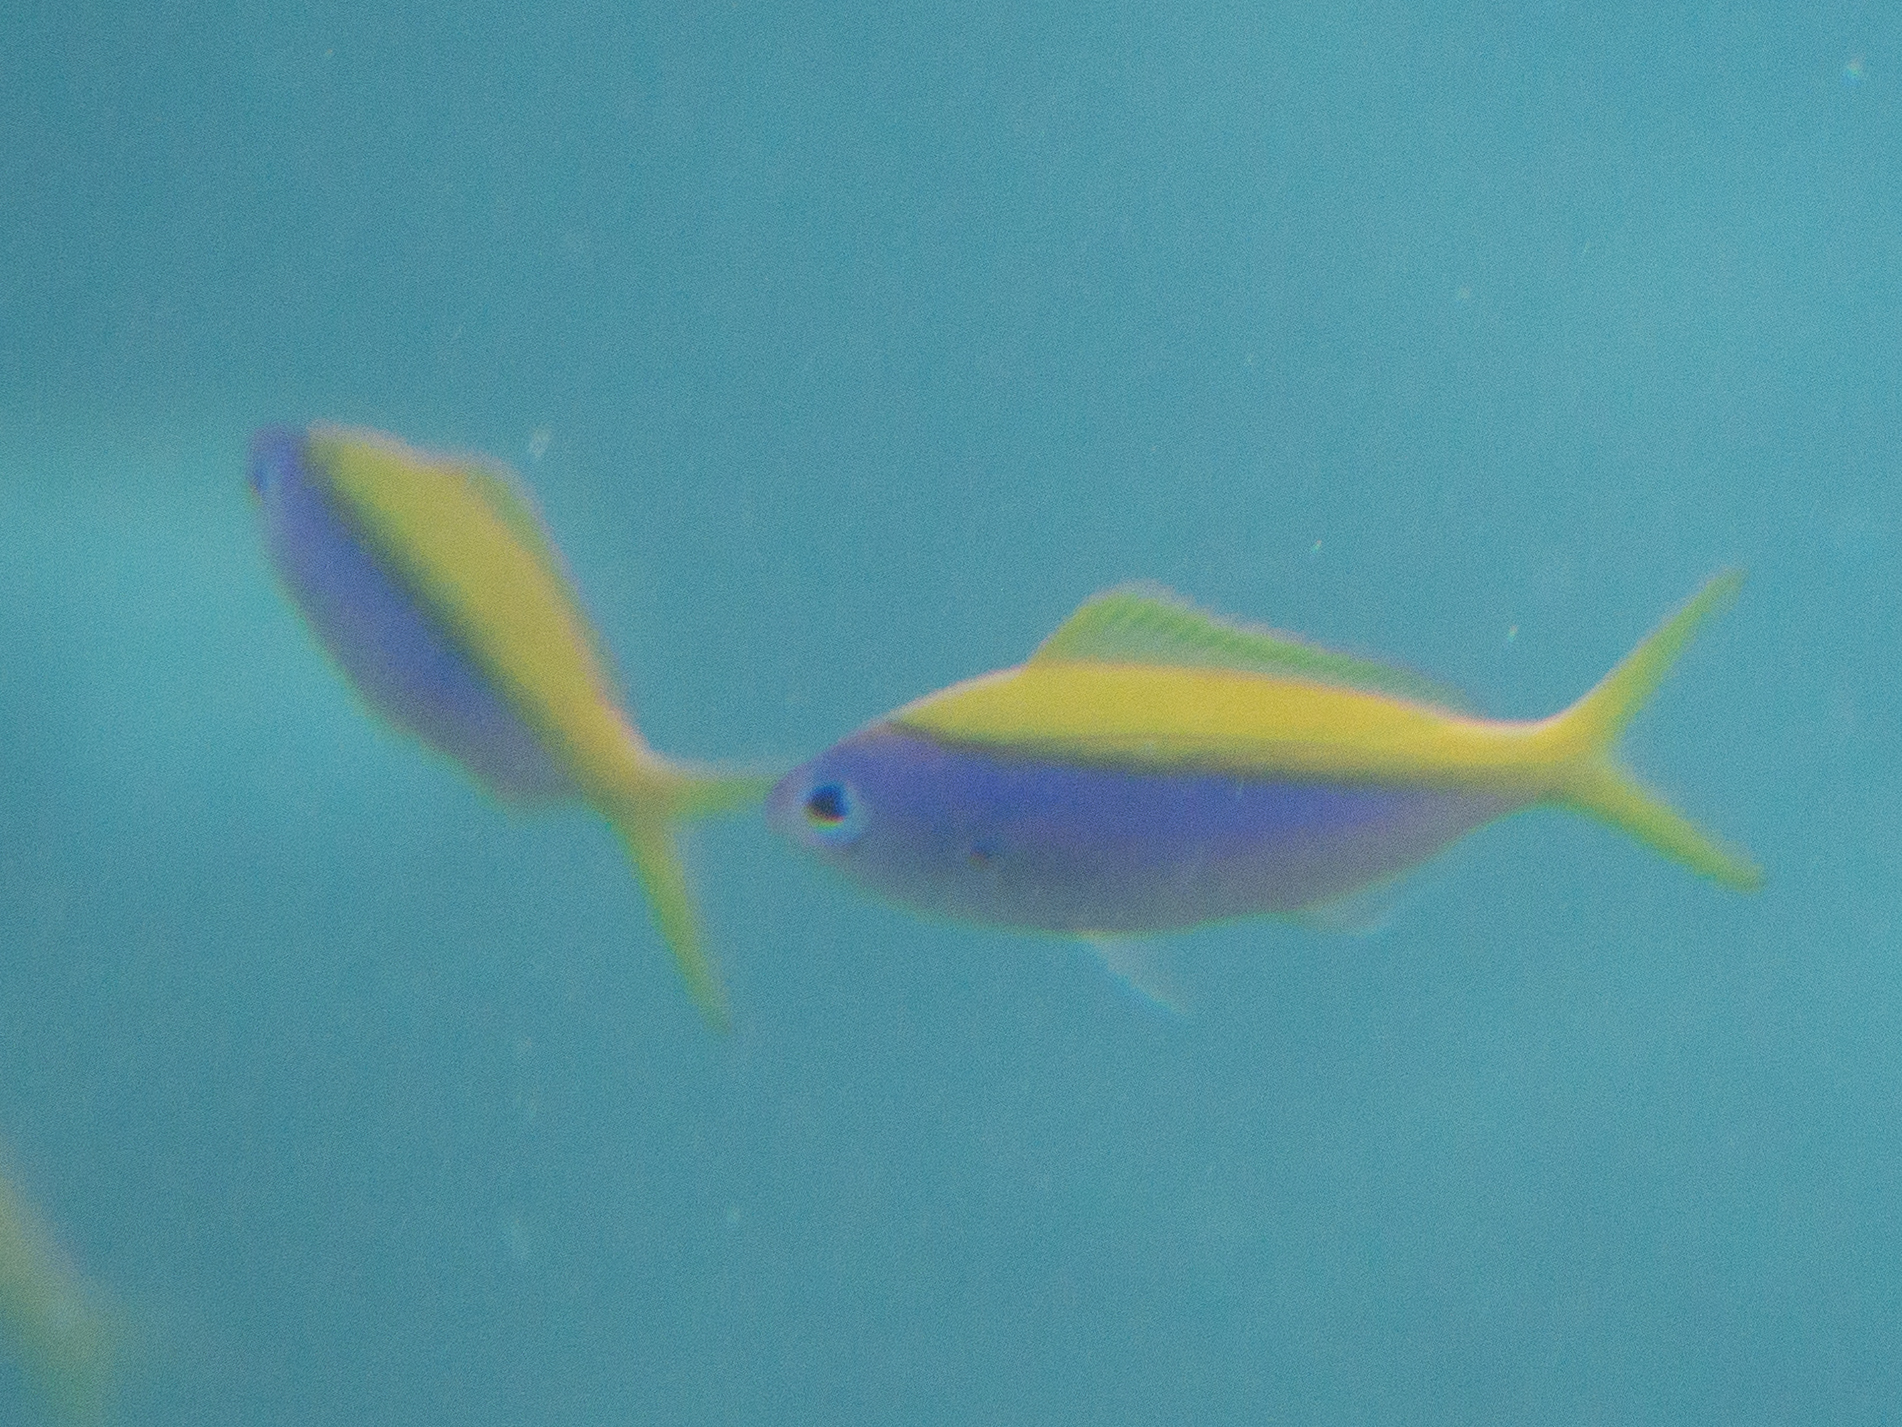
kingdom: Animalia
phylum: Chordata
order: Perciformes
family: Caesionidae
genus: Caesio
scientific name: Caesio xanthonota
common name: Yellowback fusilier
